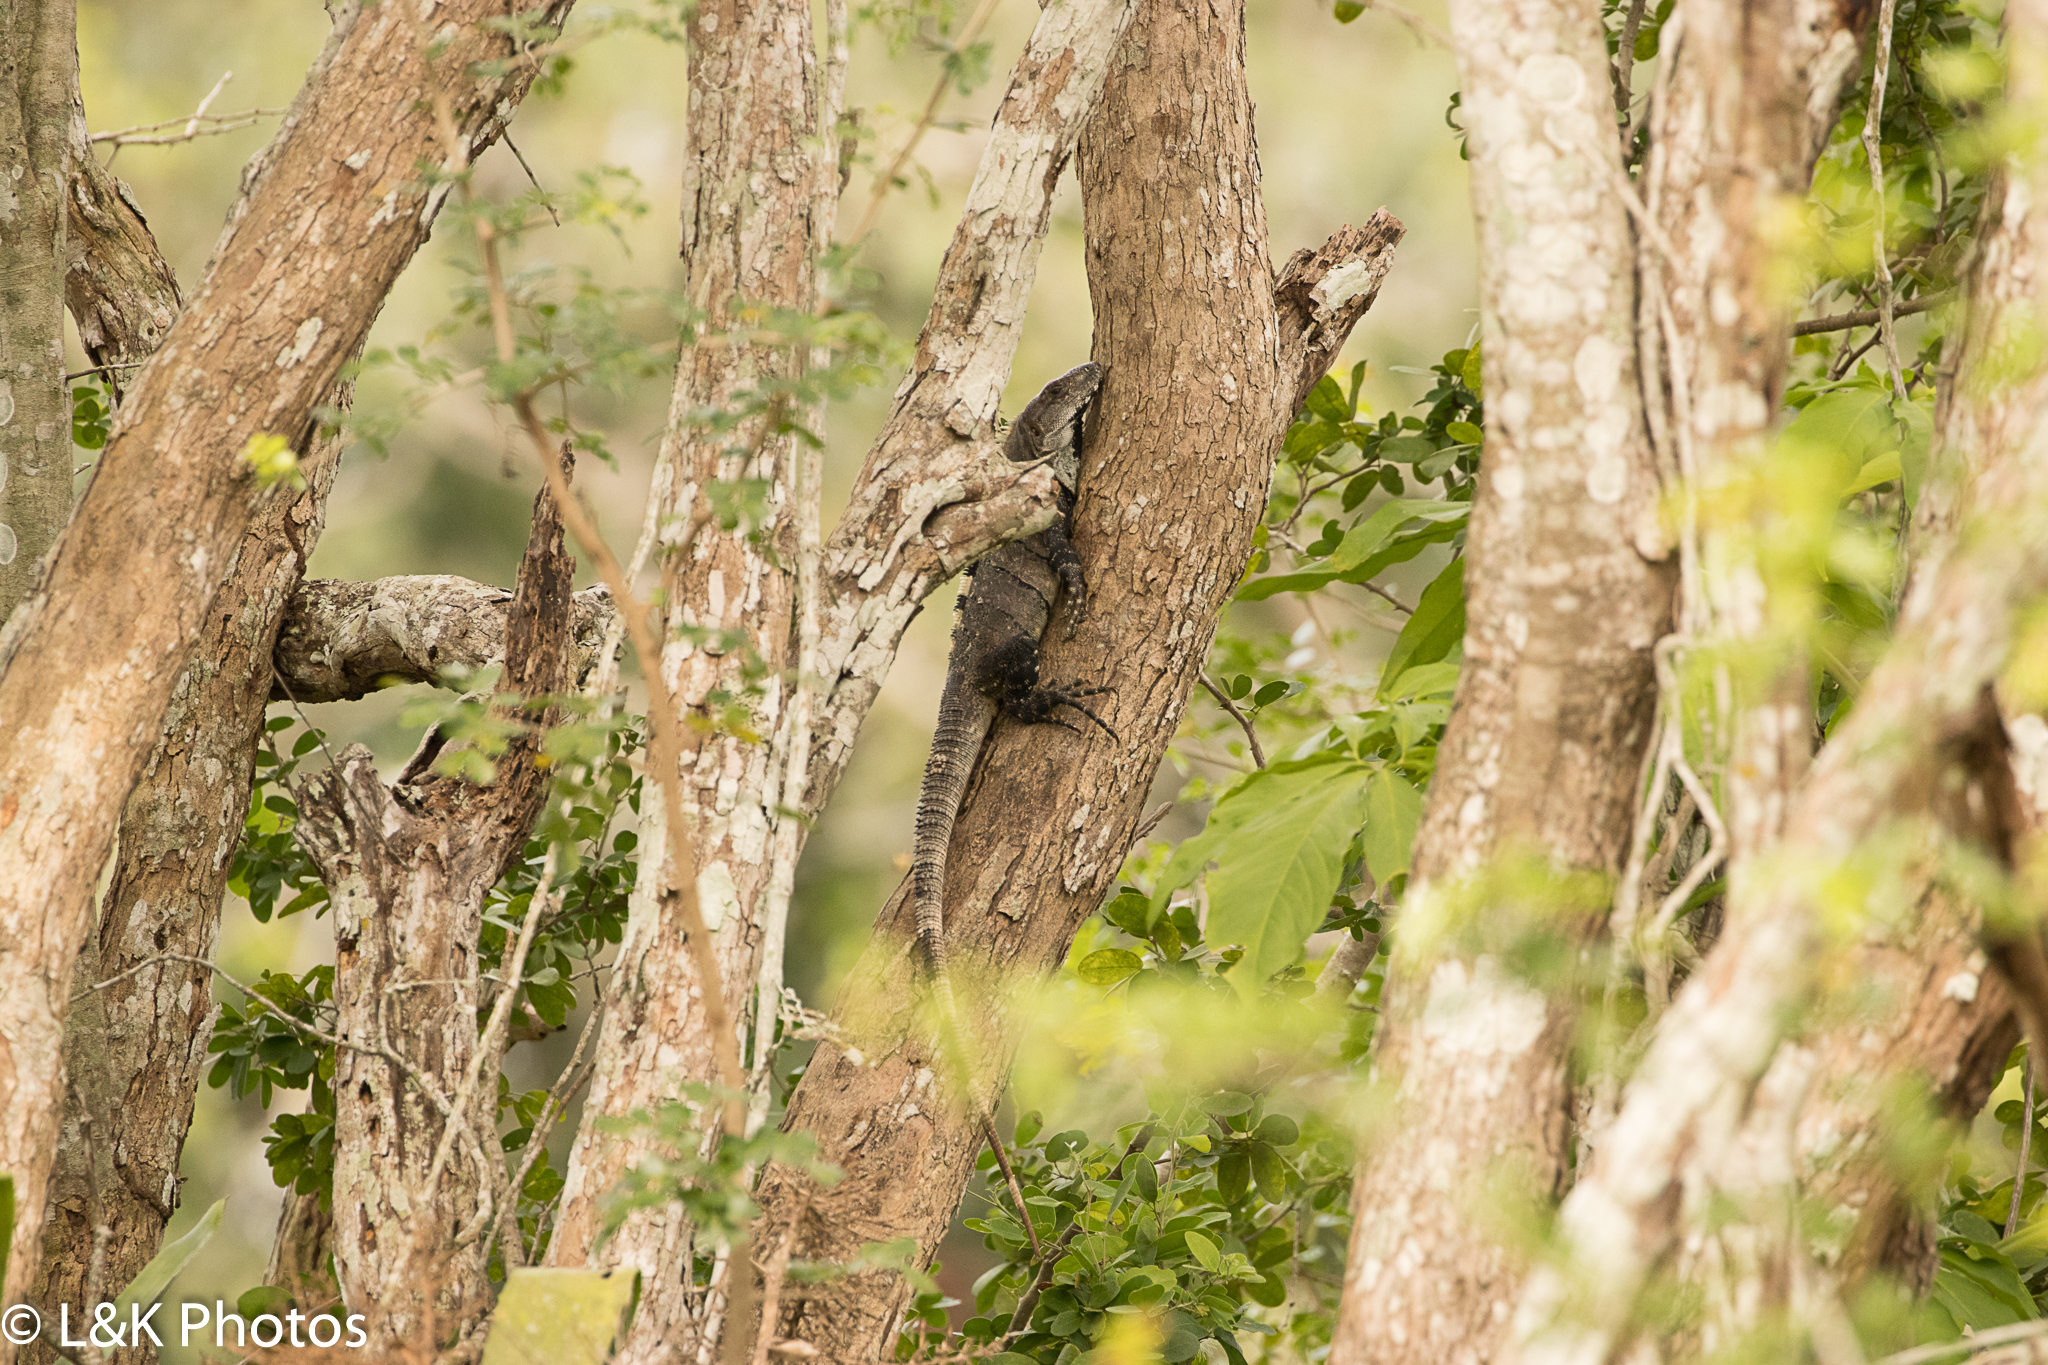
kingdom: Animalia
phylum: Chordata
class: Squamata
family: Iguanidae
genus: Ctenosaura
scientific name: Ctenosaura similis
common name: Black spiny-tailed iguana
